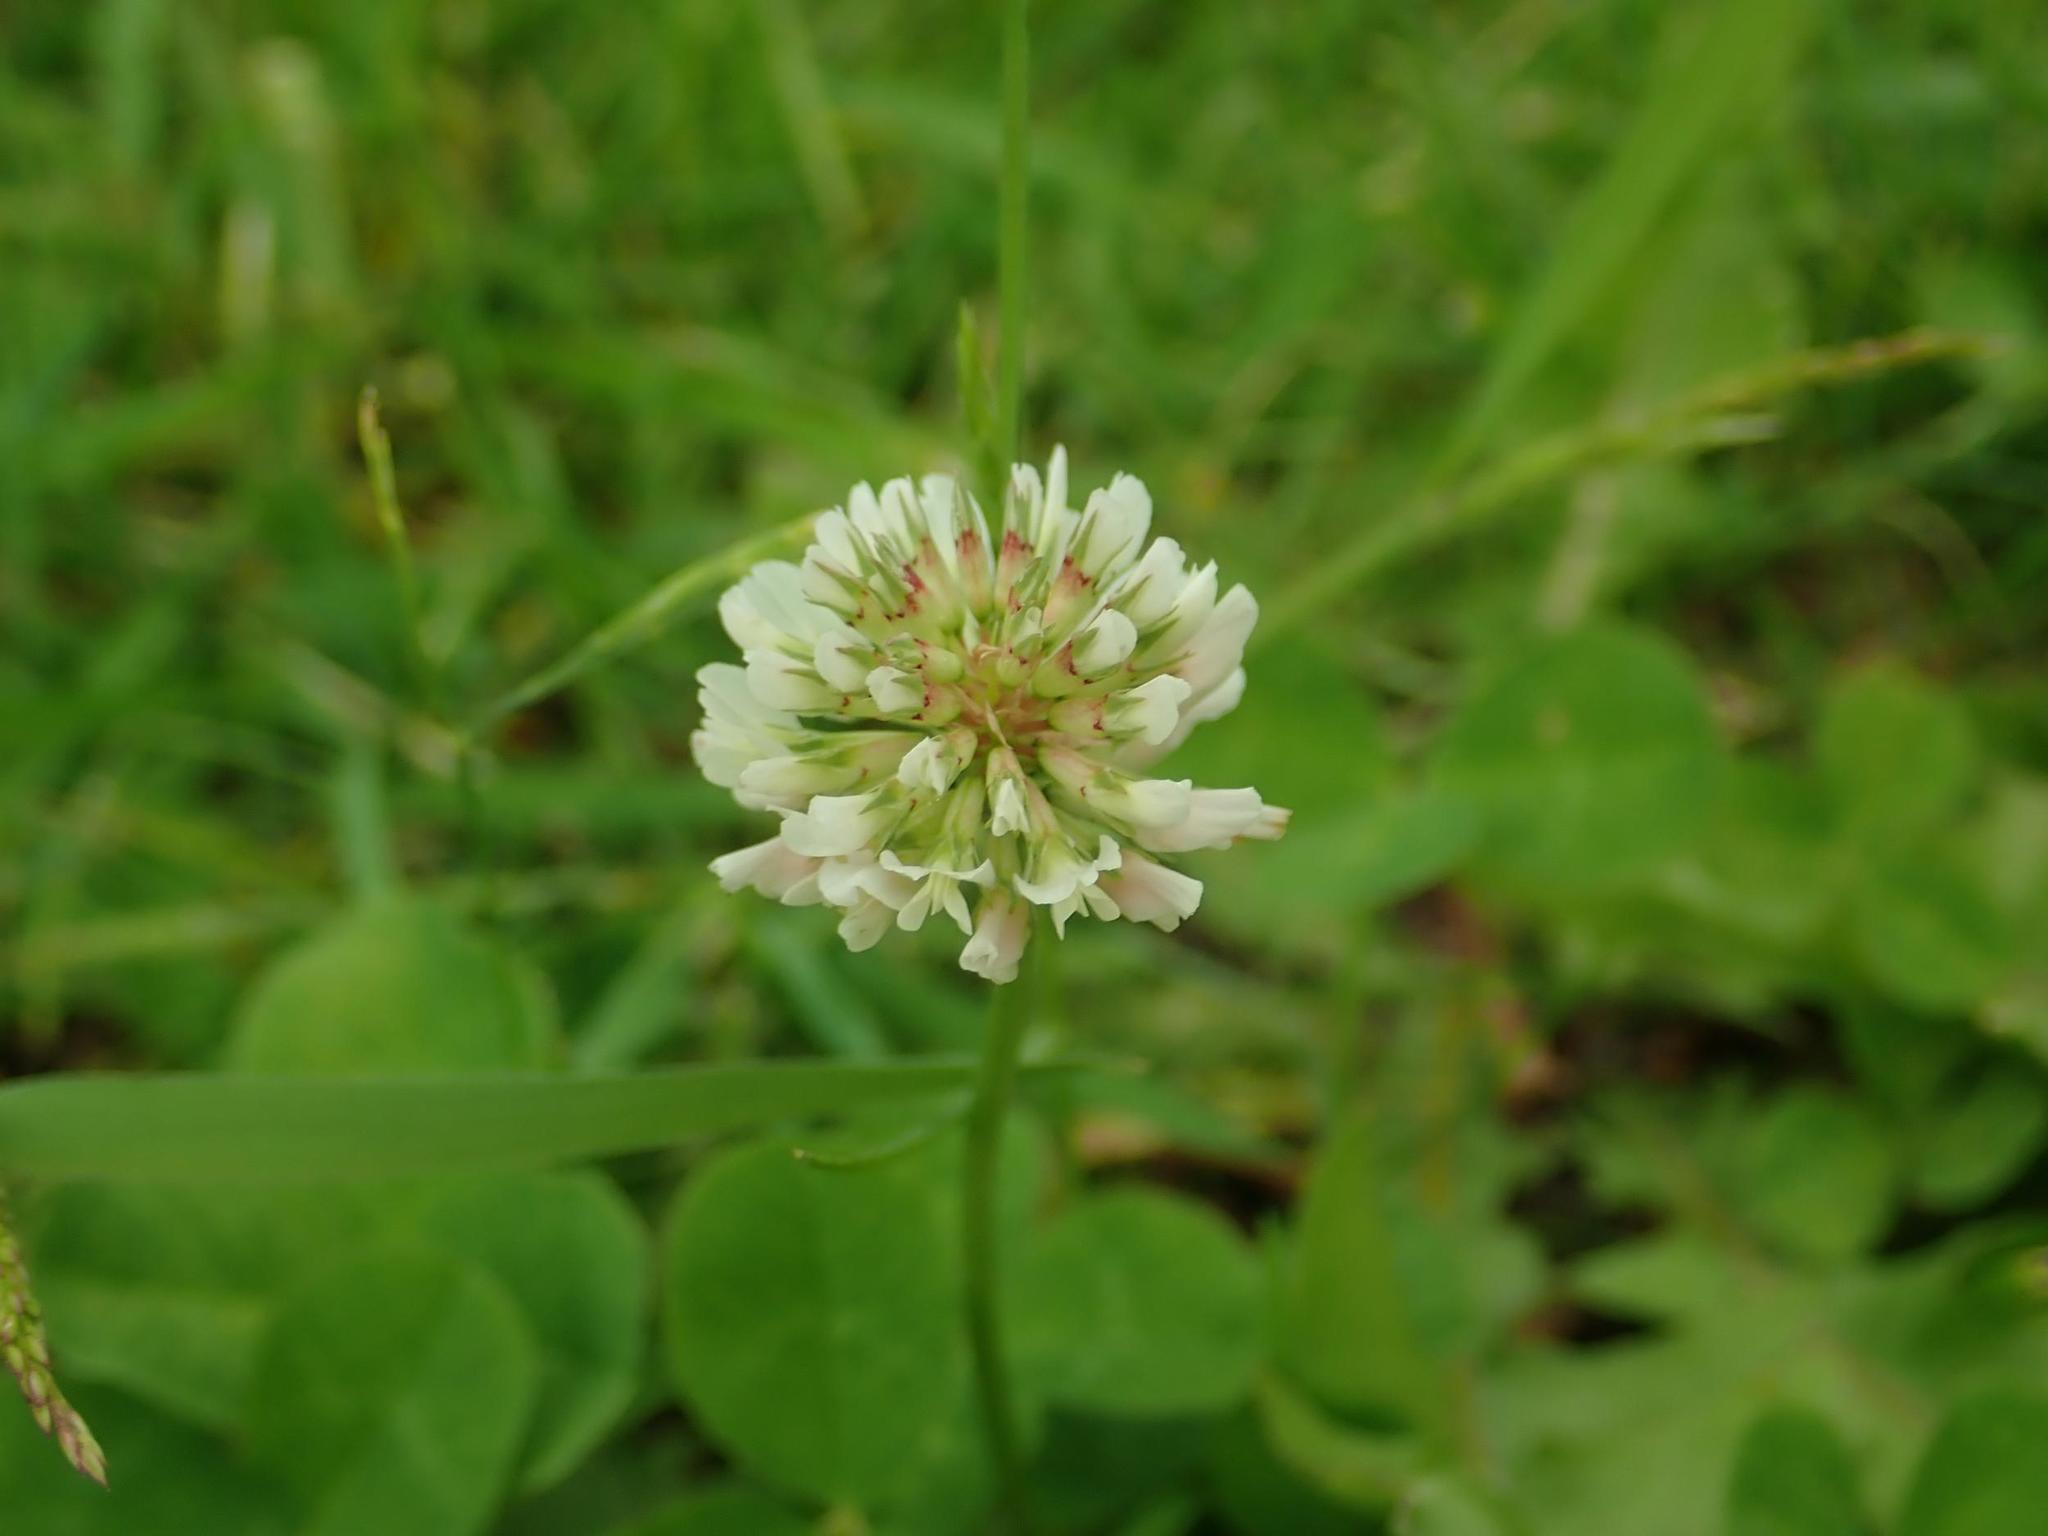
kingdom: Plantae
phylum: Tracheophyta
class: Magnoliopsida
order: Fabales
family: Fabaceae
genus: Trifolium
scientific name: Trifolium repens
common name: White clover
